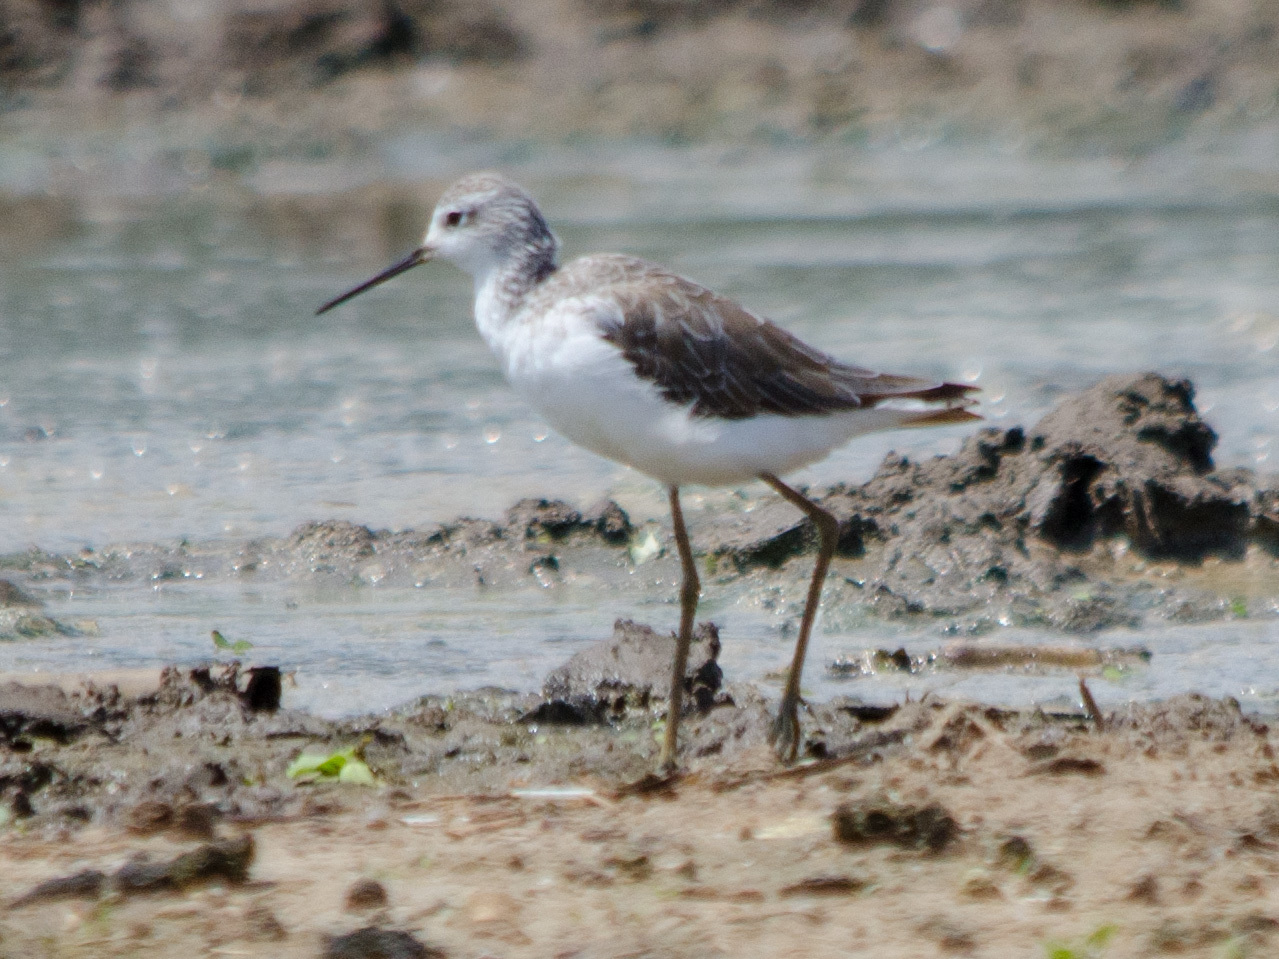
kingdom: Animalia
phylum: Chordata
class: Aves
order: Charadriiformes
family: Scolopacidae
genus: Tringa
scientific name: Tringa stagnatilis
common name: Marsh sandpiper
